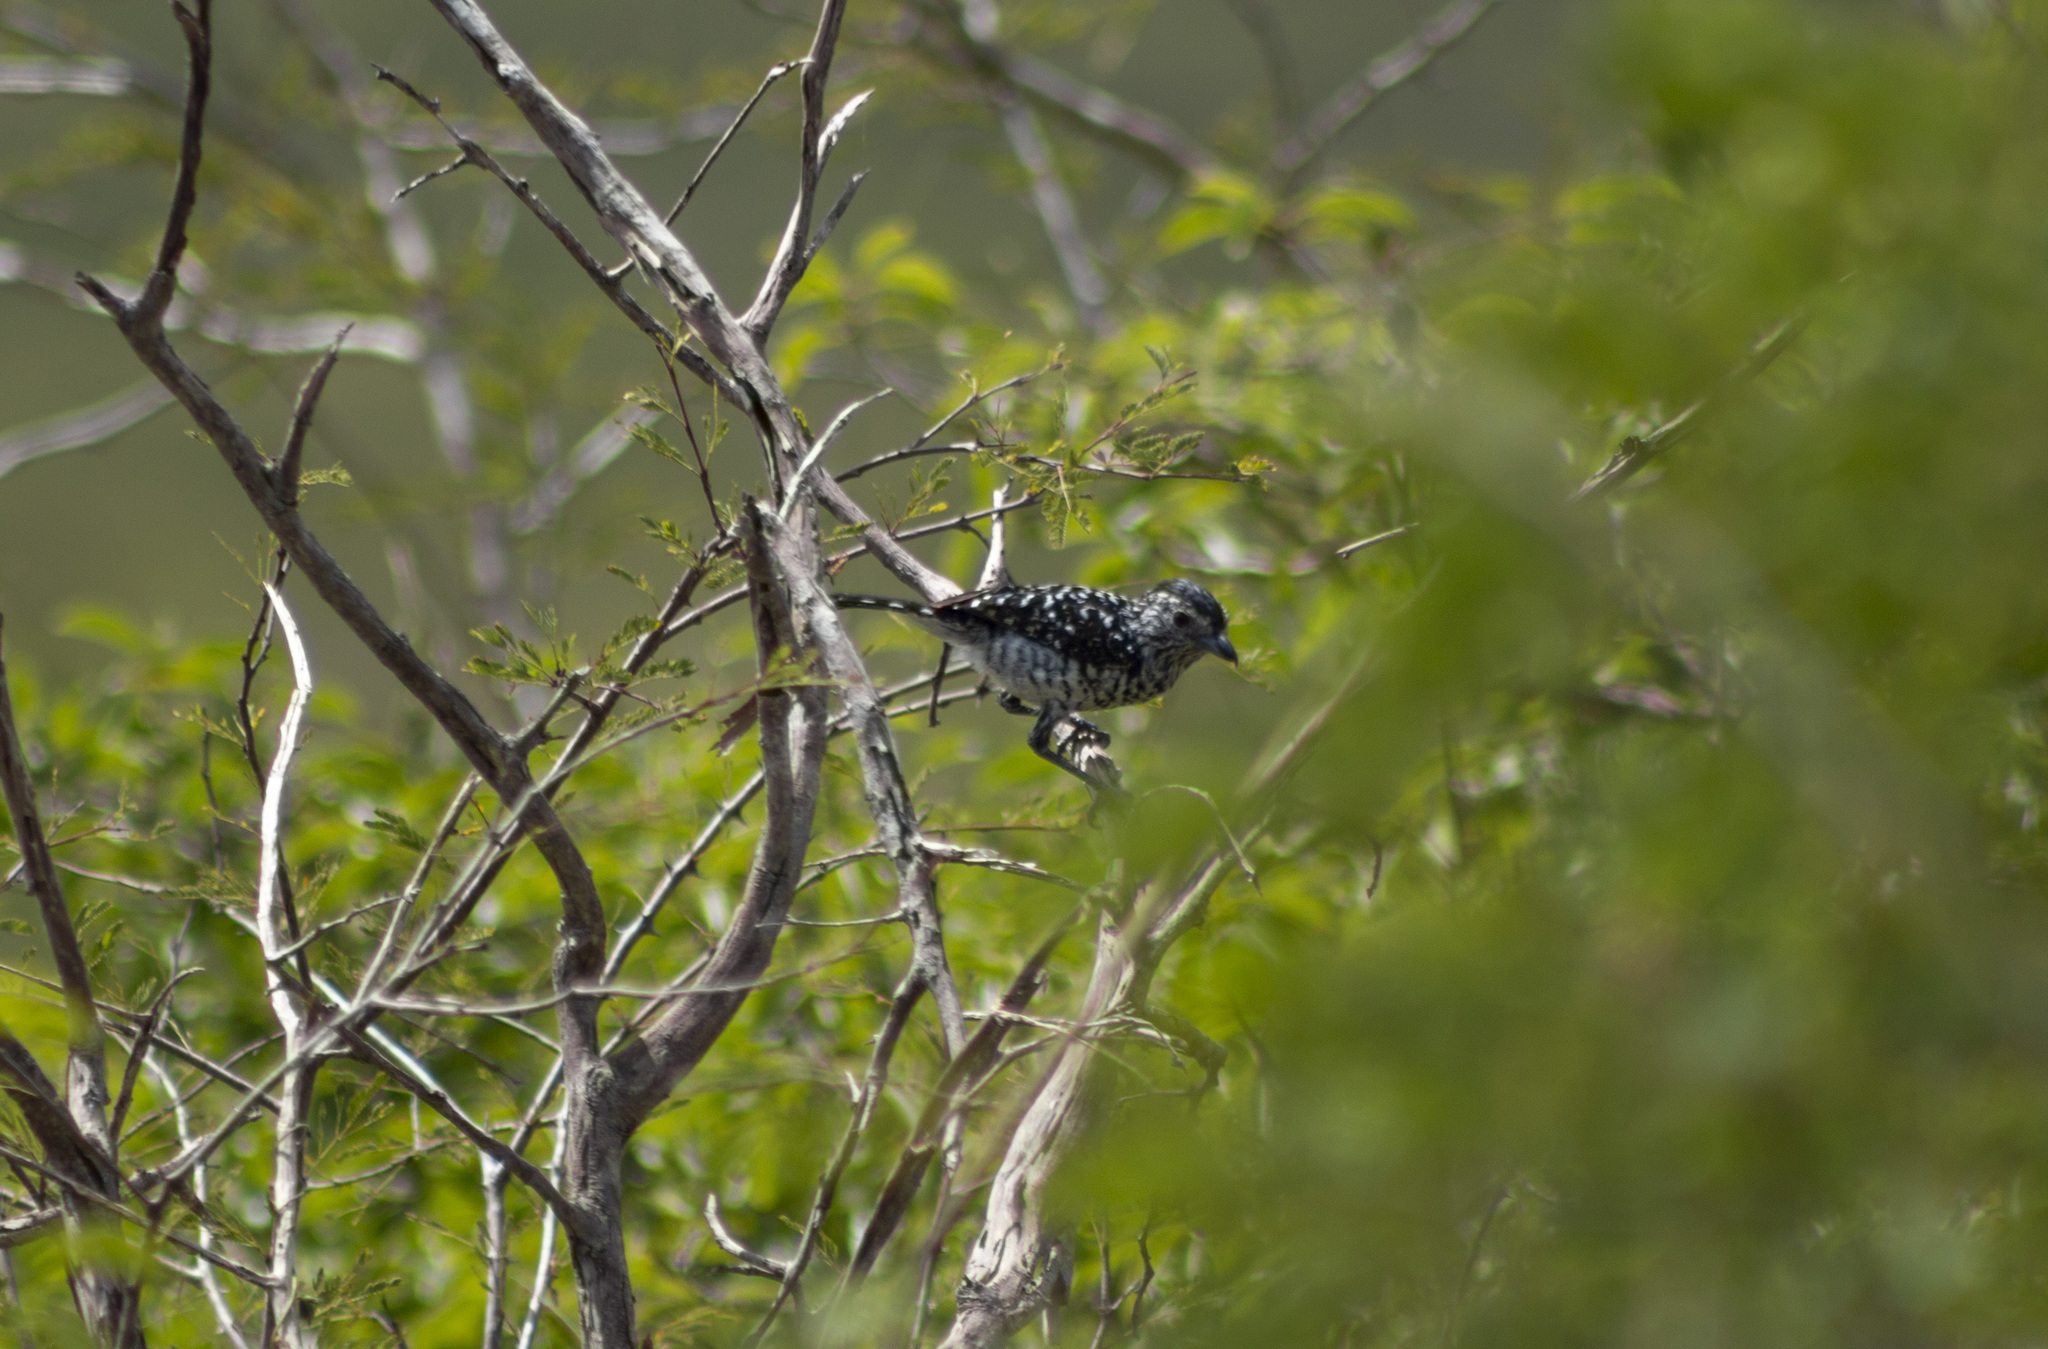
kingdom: Animalia
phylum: Chordata
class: Aves
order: Passeriformes
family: Thamnophilidae
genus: Thamnophilus
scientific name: Thamnophilus doliatus
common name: Barred antshrike
